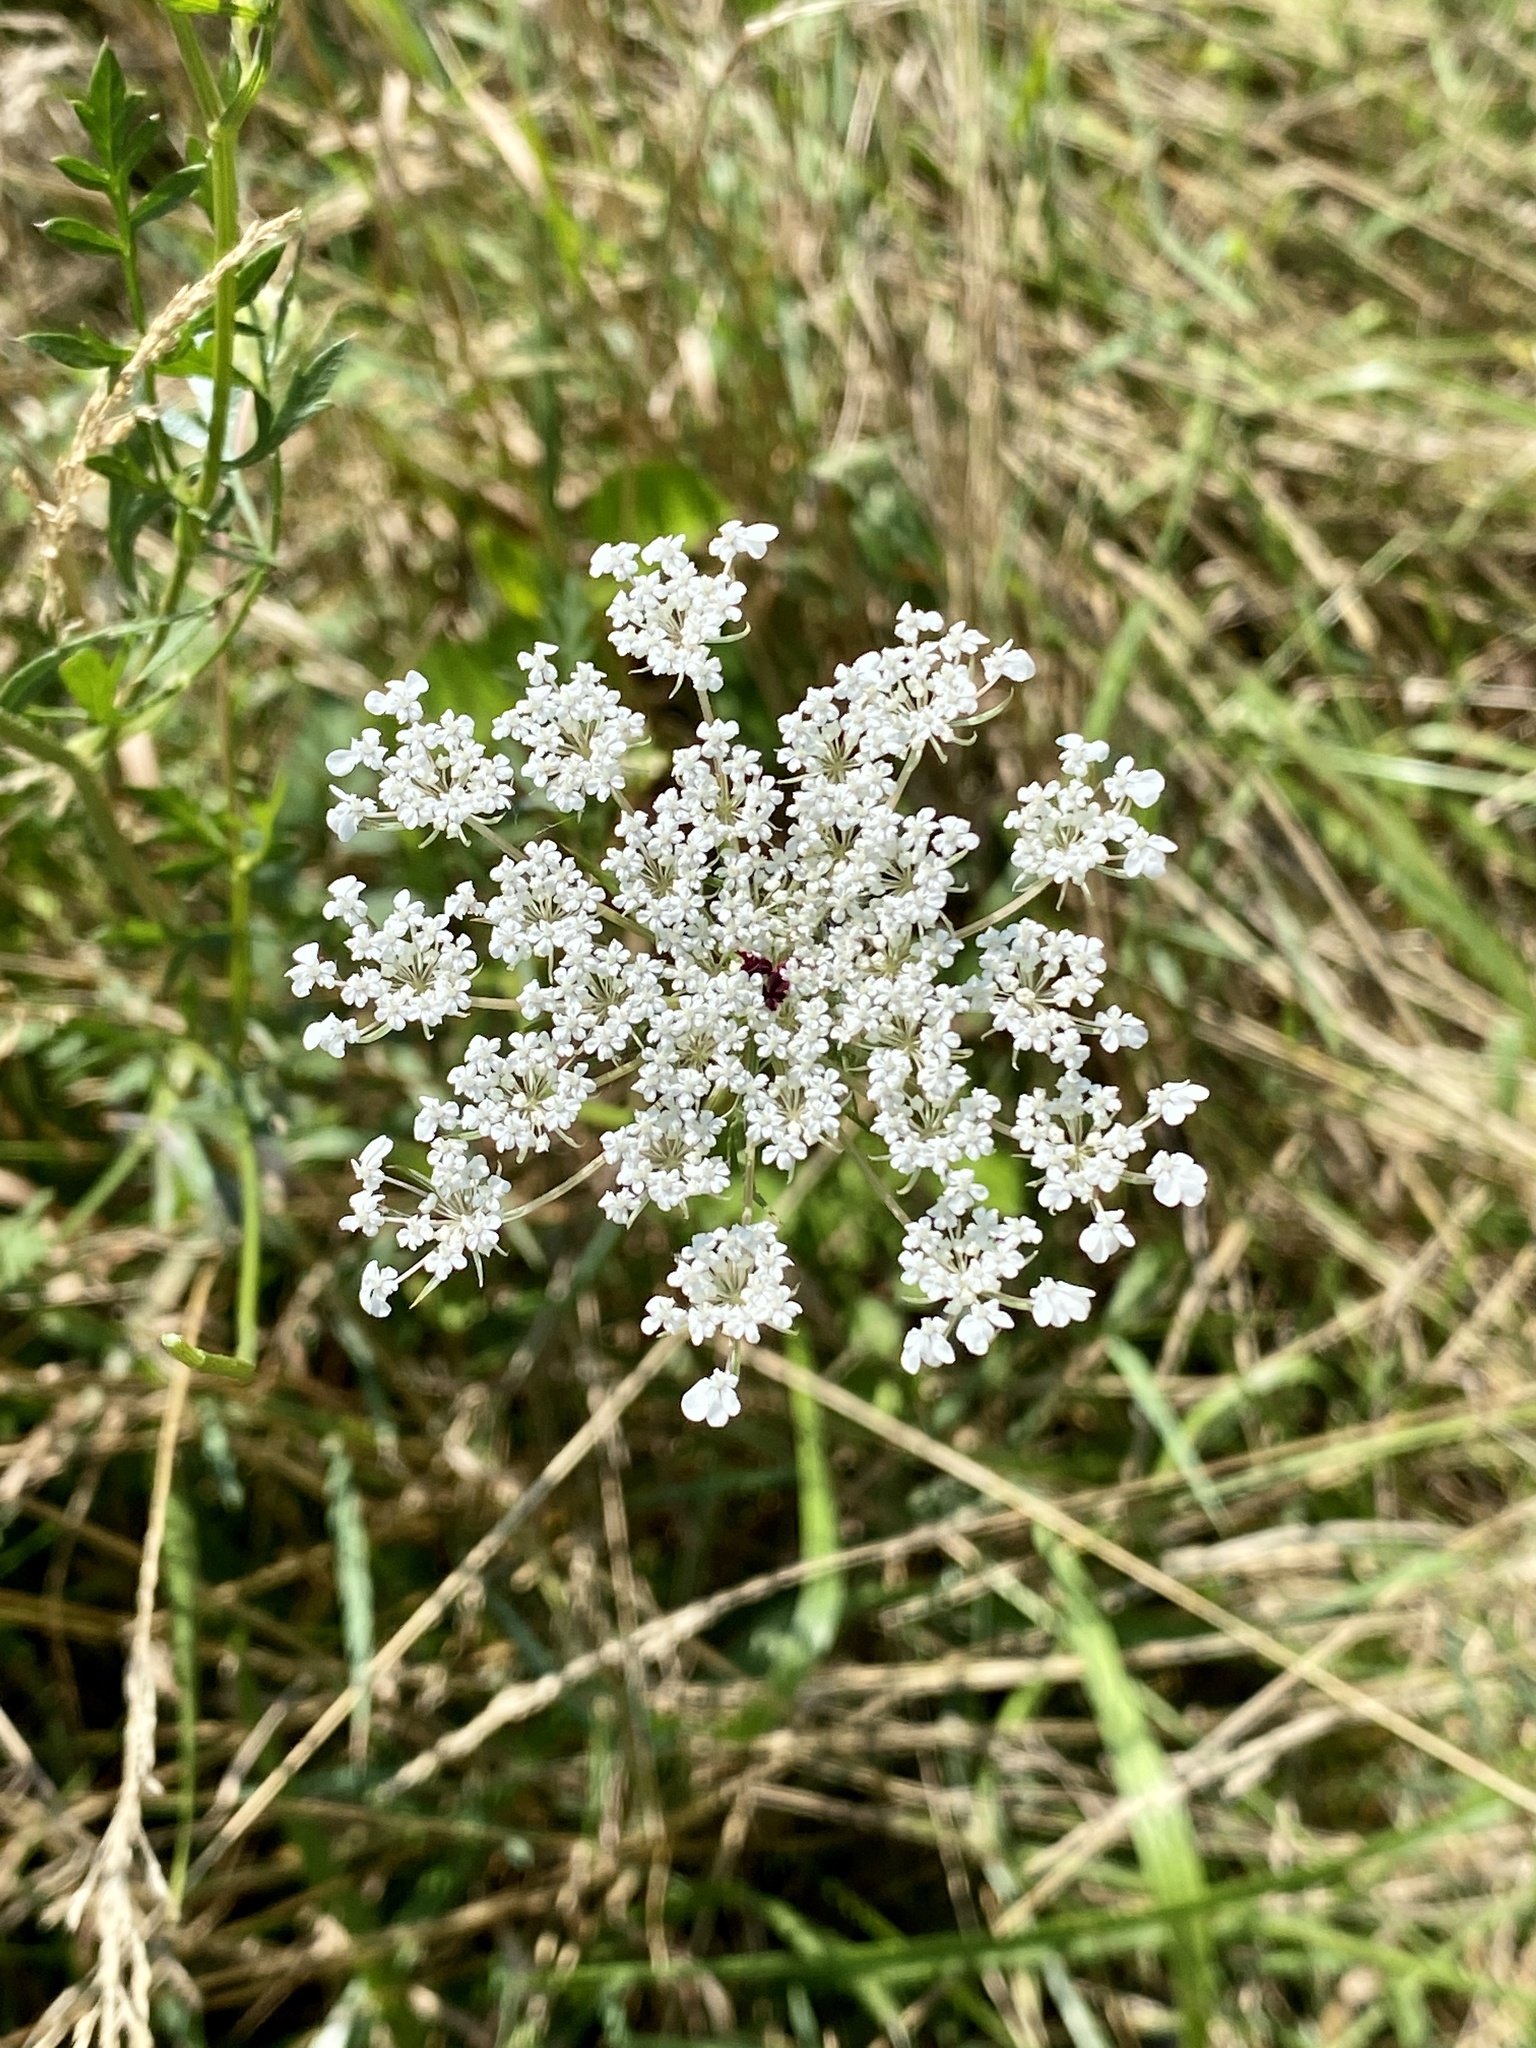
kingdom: Plantae
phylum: Tracheophyta
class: Magnoliopsida
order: Apiales
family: Apiaceae
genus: Daucus
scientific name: Daucus carota
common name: Wild carrot
